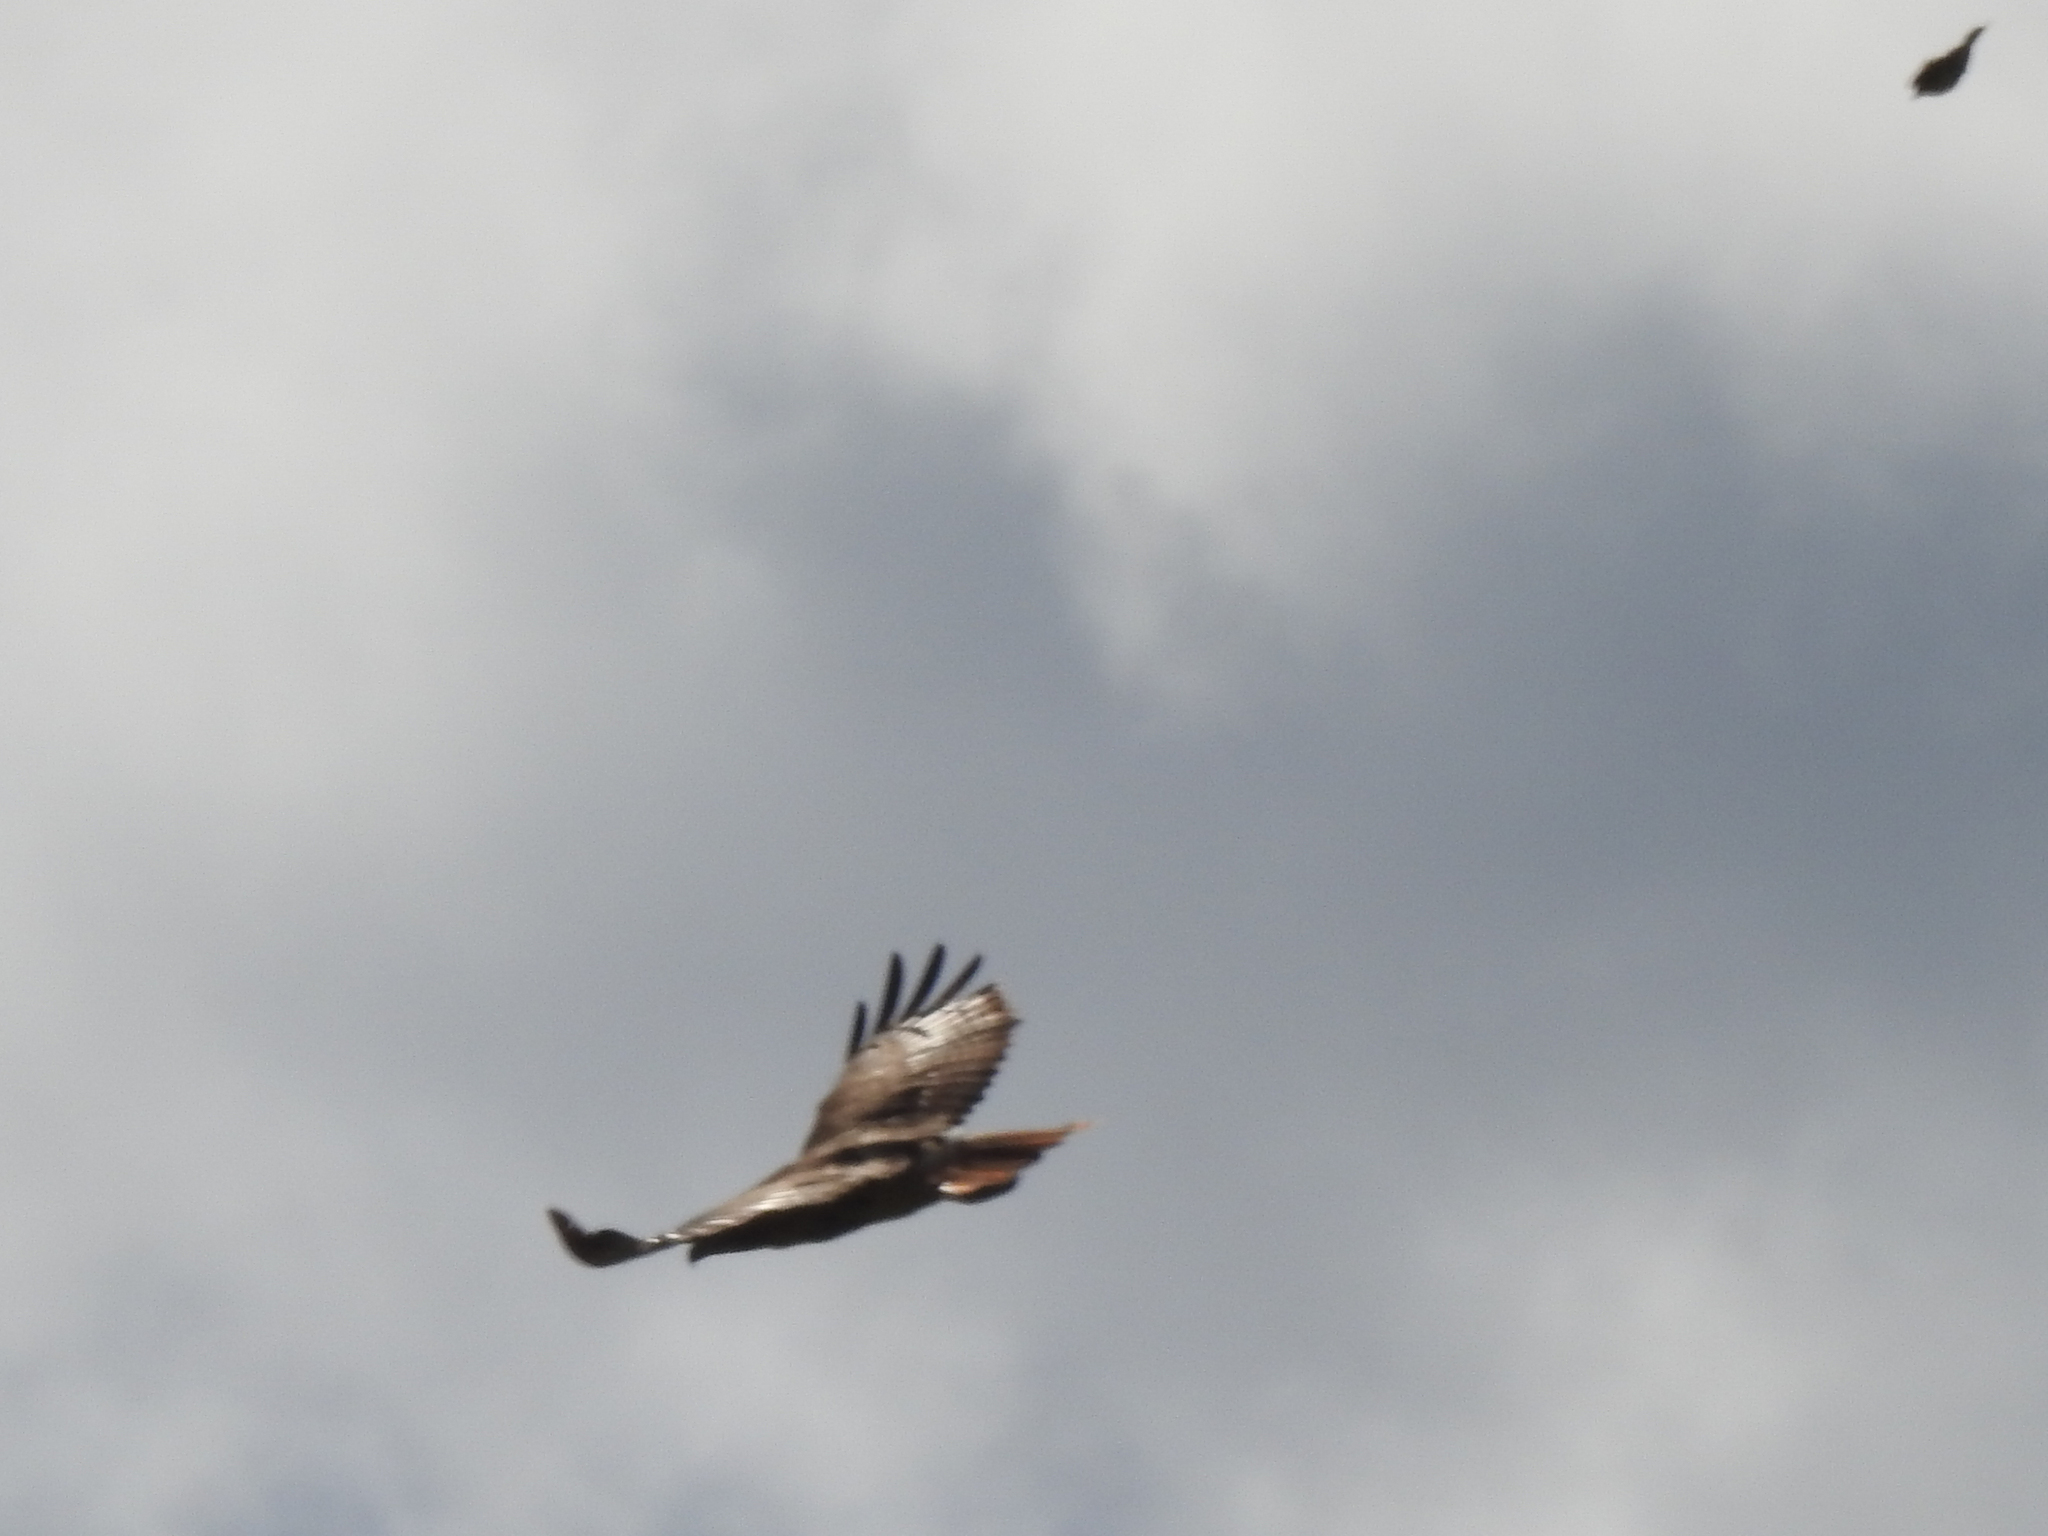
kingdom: Animalia
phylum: Chordata
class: Aves
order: Accipitriformes
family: Accipitridae
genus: Buteo
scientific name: Buteo jamaicensis
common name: Red-tailed hawk
